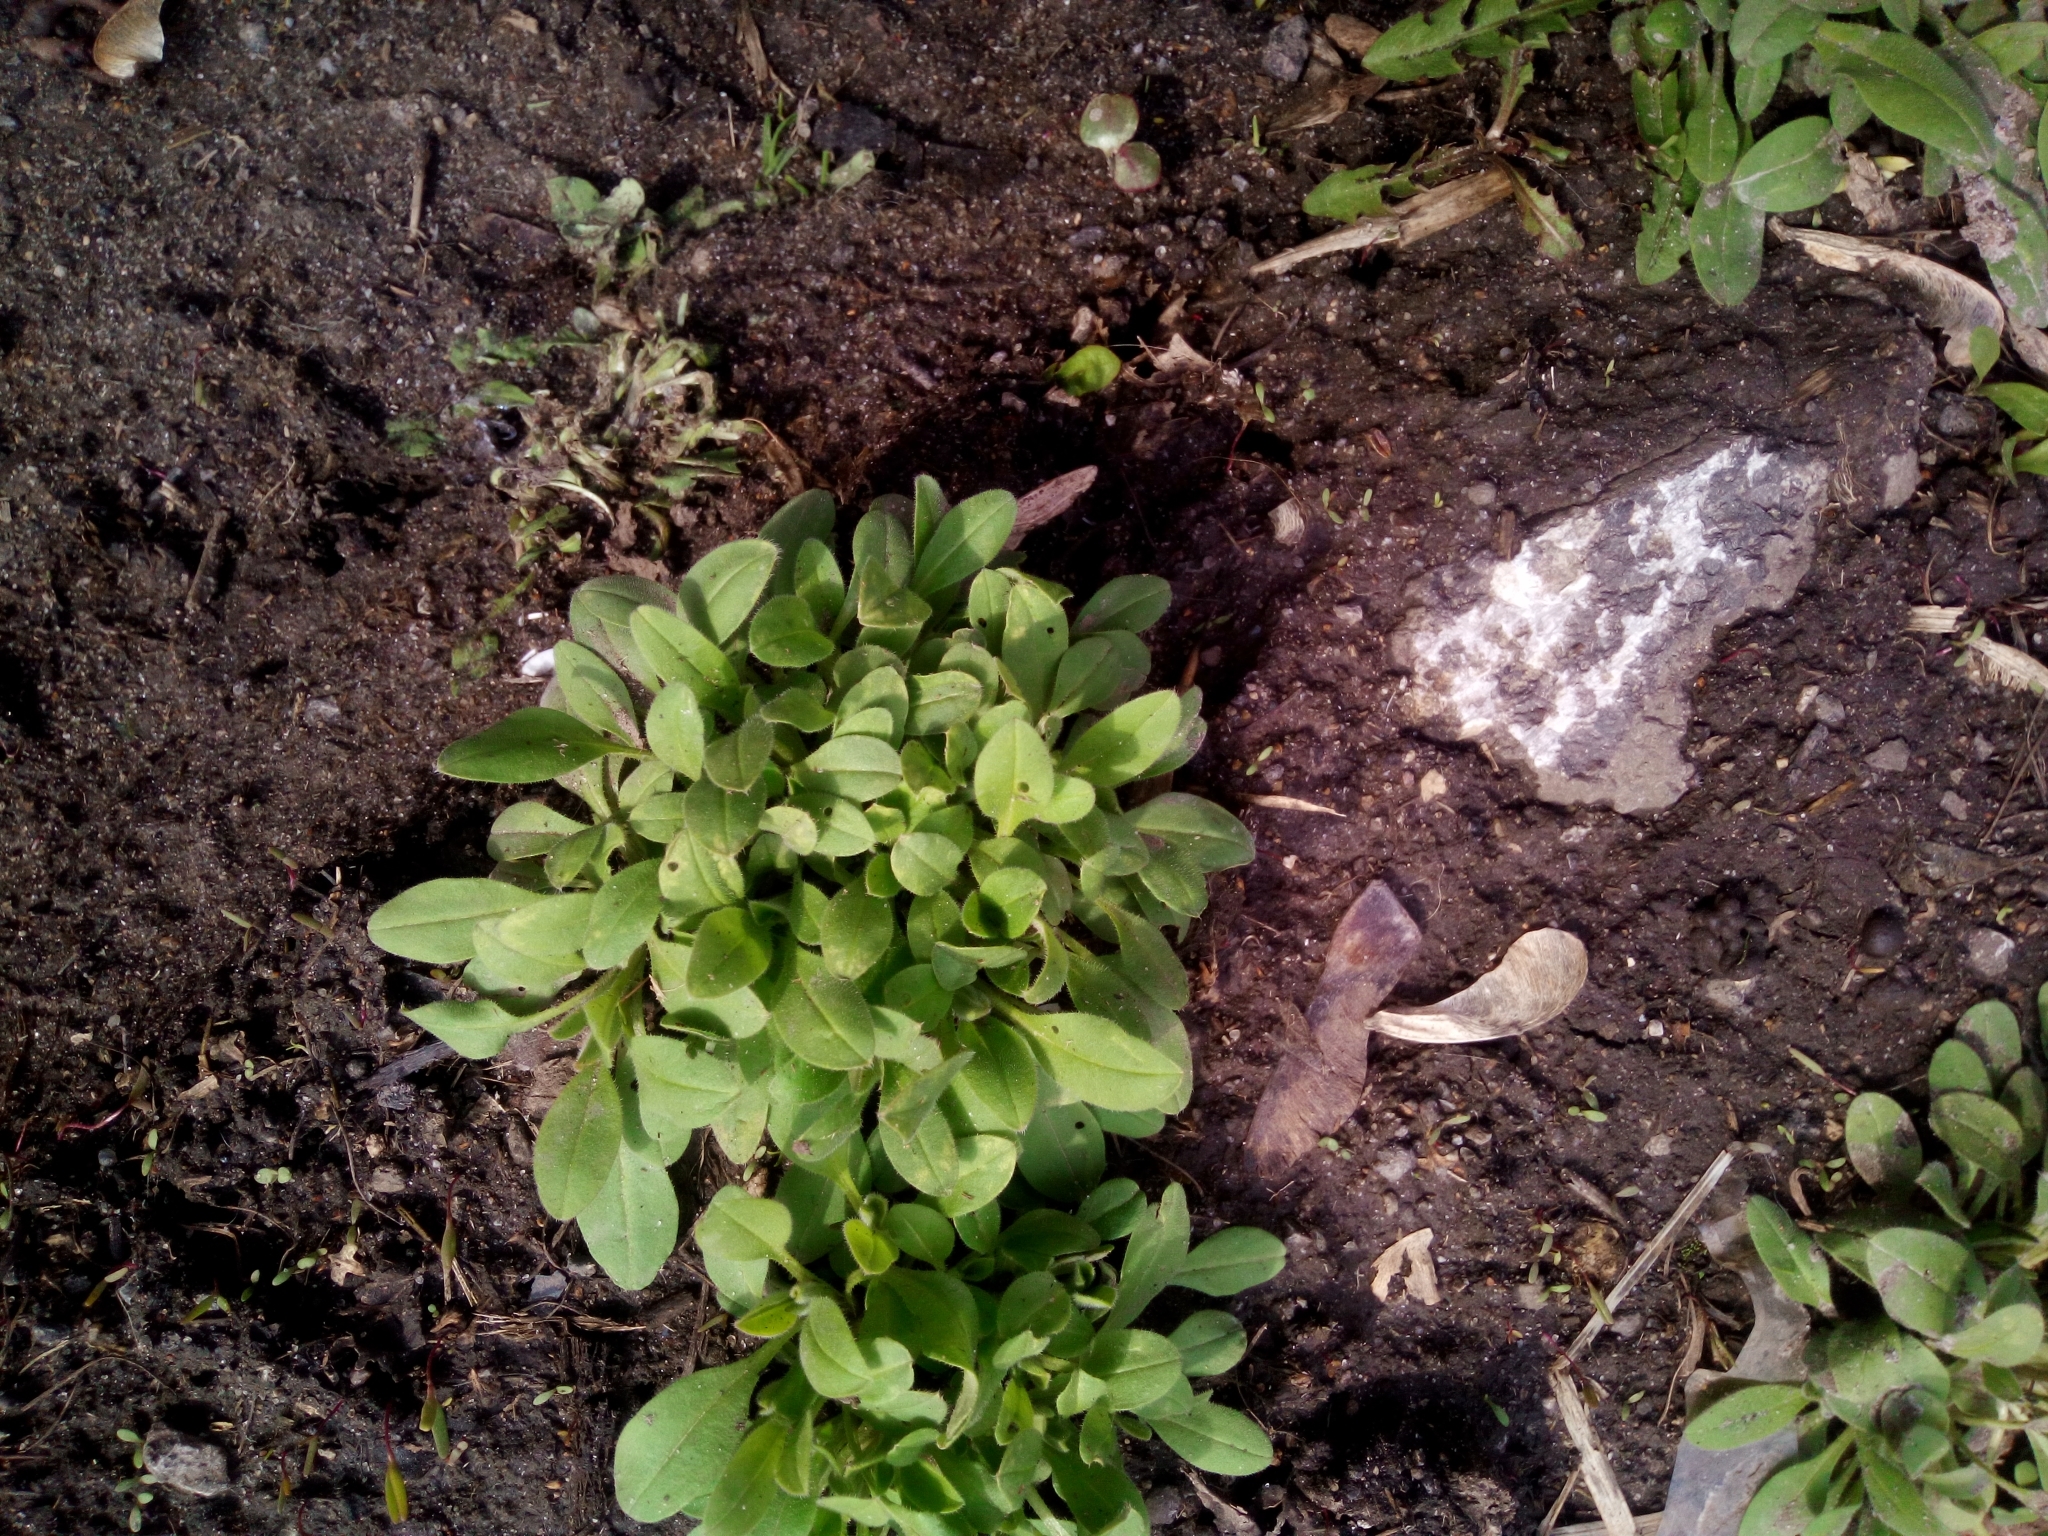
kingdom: Plantae
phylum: Tracheophyta
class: Magnoliopsida
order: Boraginales
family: Boraginaceae
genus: Myosotis
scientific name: Myosotis sparsiflora
